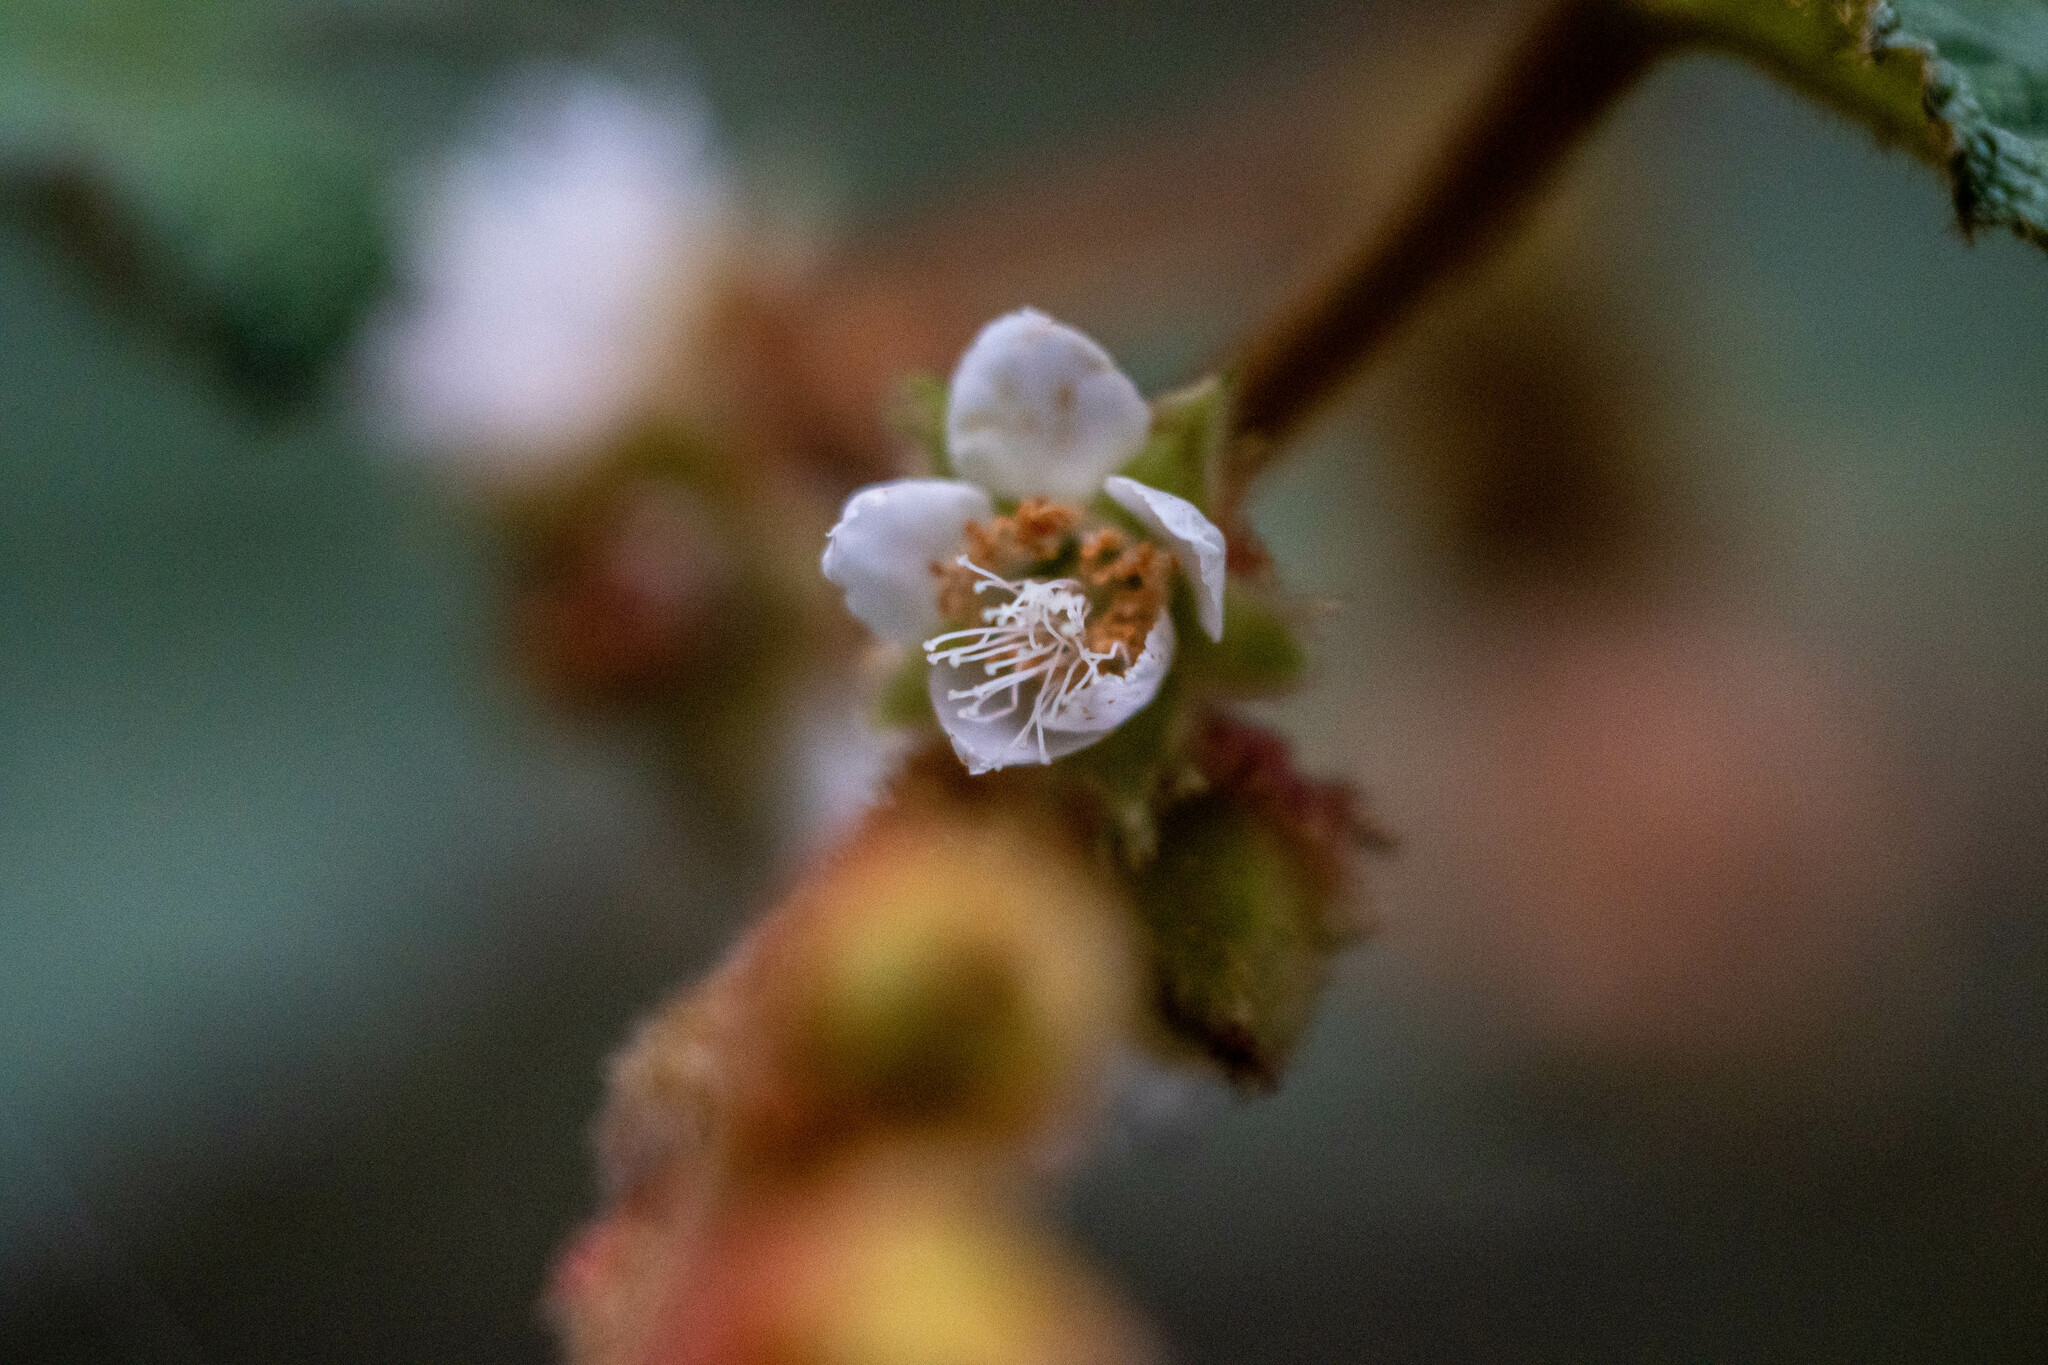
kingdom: Plantae
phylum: Tracheophyta
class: Magnoliopsida
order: Rosales
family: Rosaceae
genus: Rubus
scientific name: Rubus reflexus
